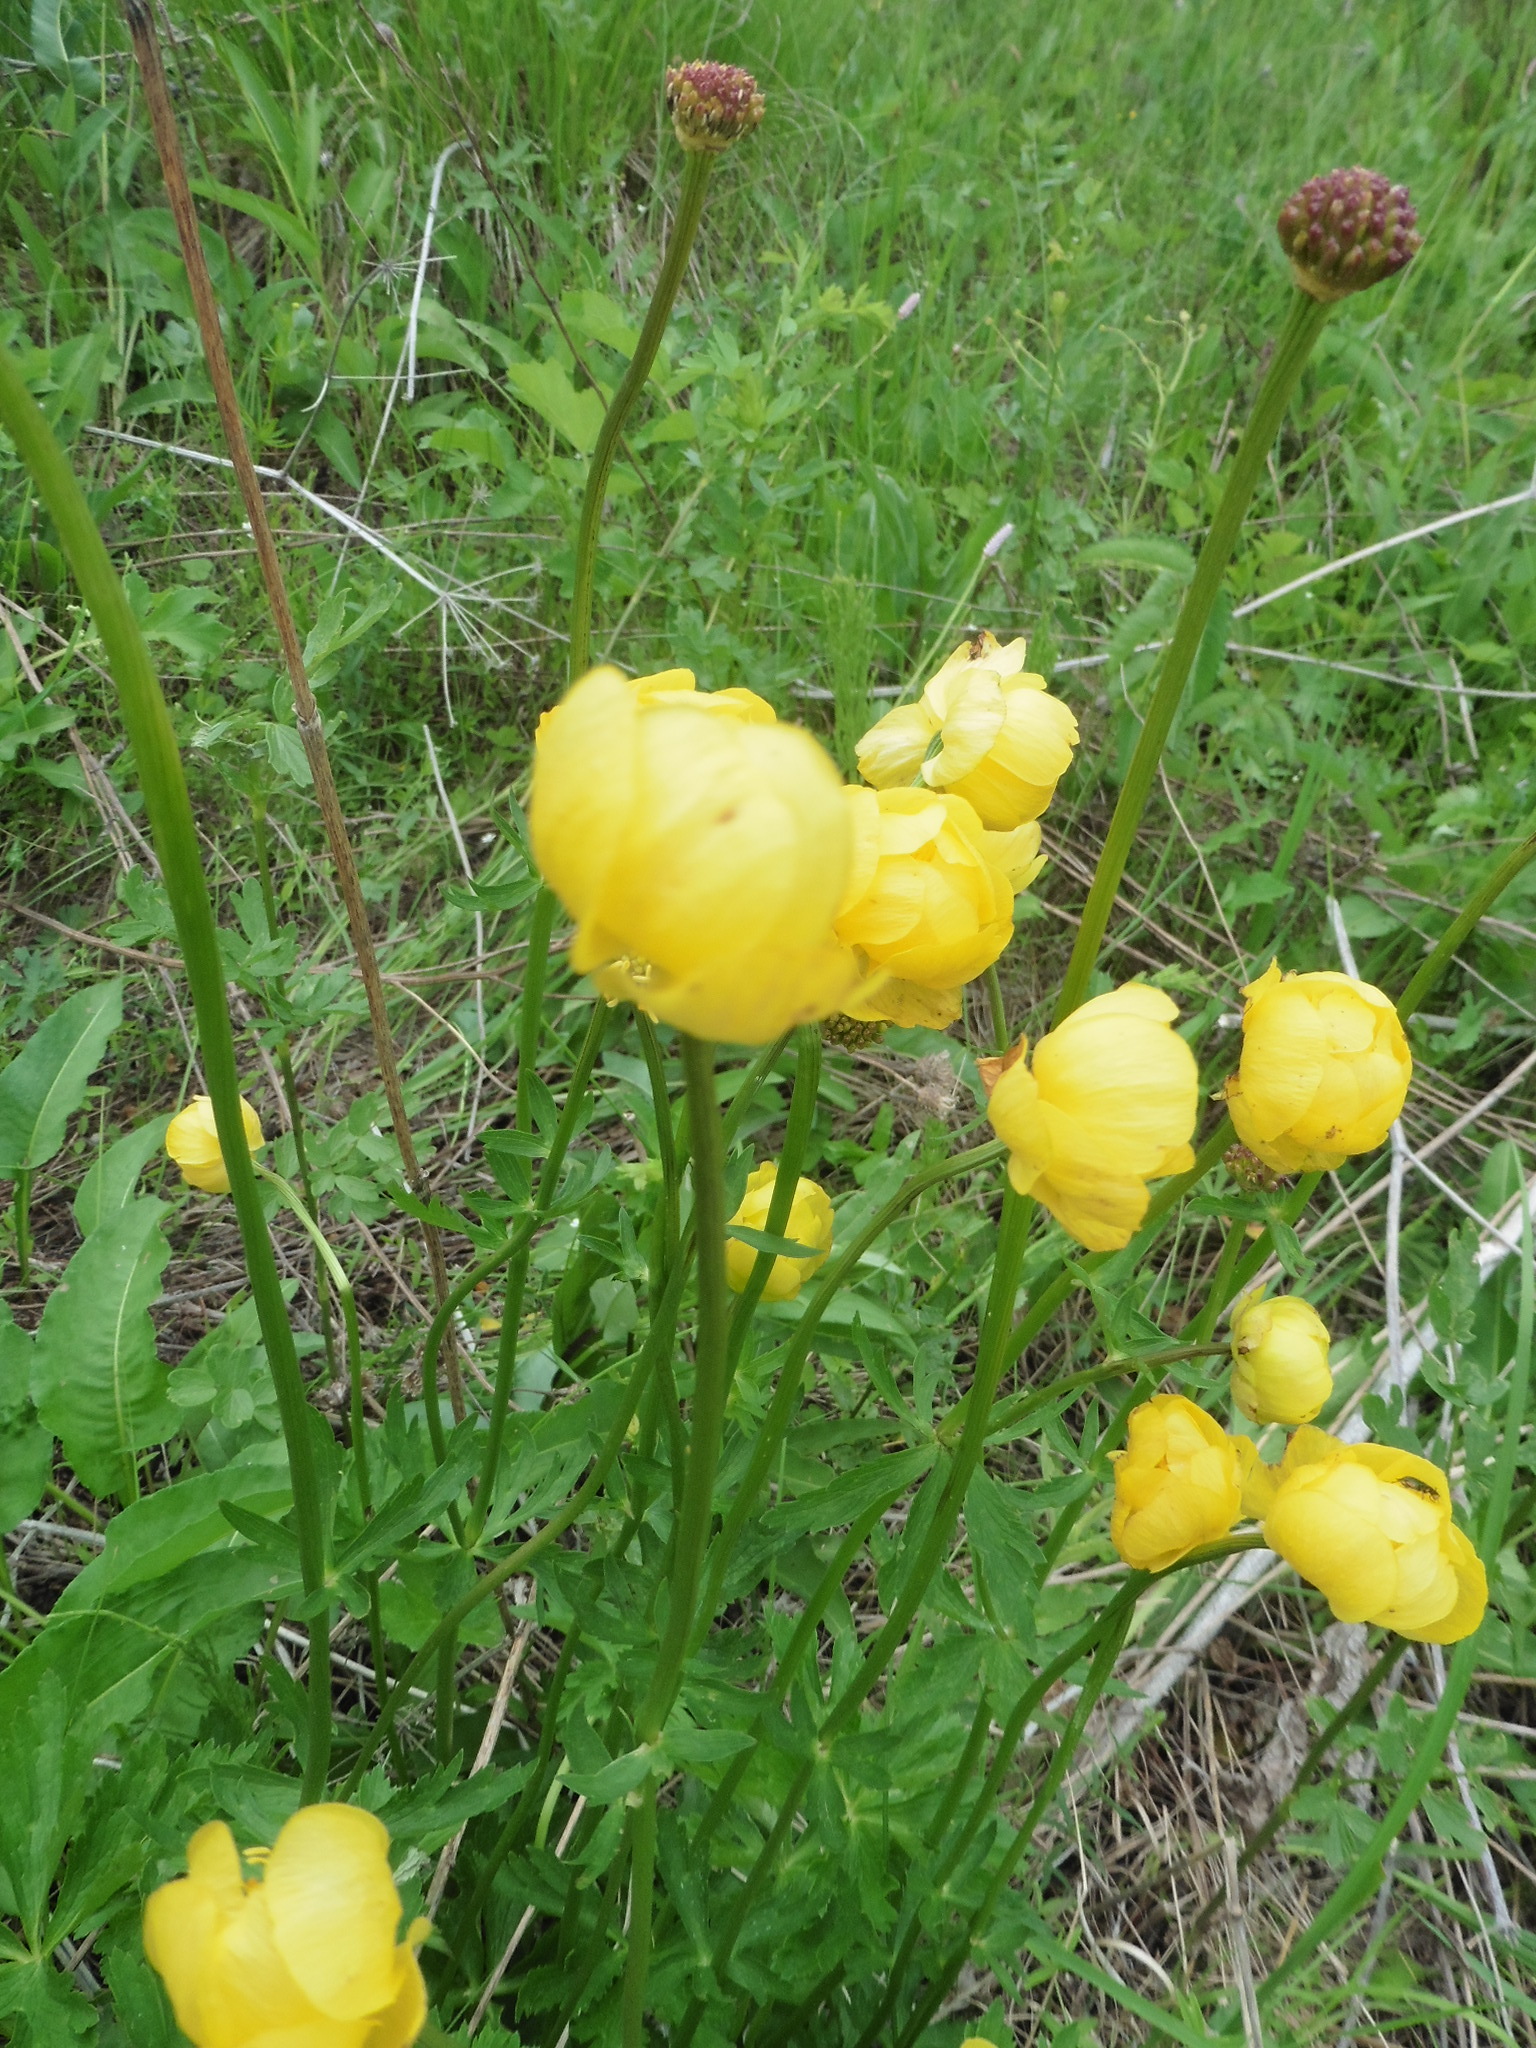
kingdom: Plantae
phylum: Tracheophyta
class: Magnoliopsida
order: Ranunculales
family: Ranunculaceae
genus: Trollius
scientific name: Trollius europaeus
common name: European globeflower
